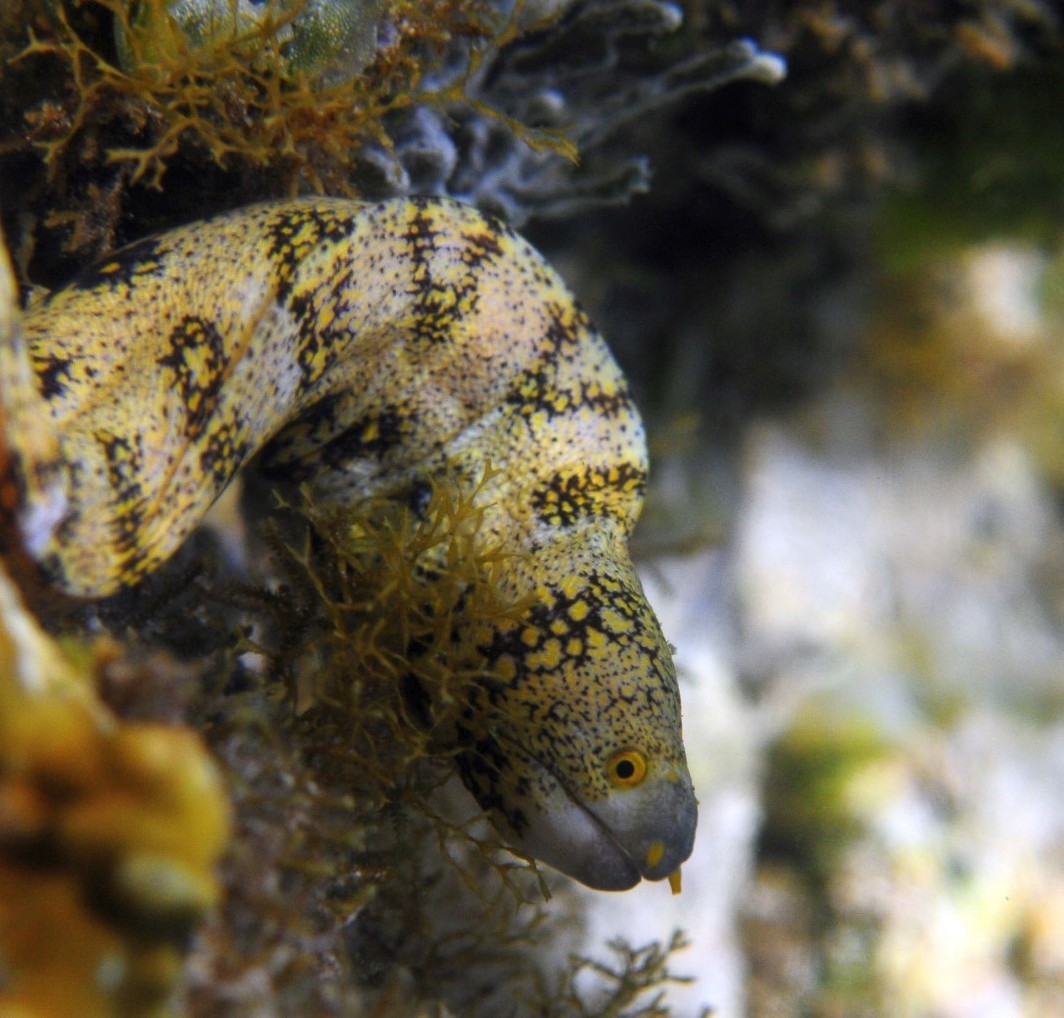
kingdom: Animalia
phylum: Chordata
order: Anguilliformes
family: Muraenidae
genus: Echidna
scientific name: Echidna nebulosa
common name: Snowflake moray
